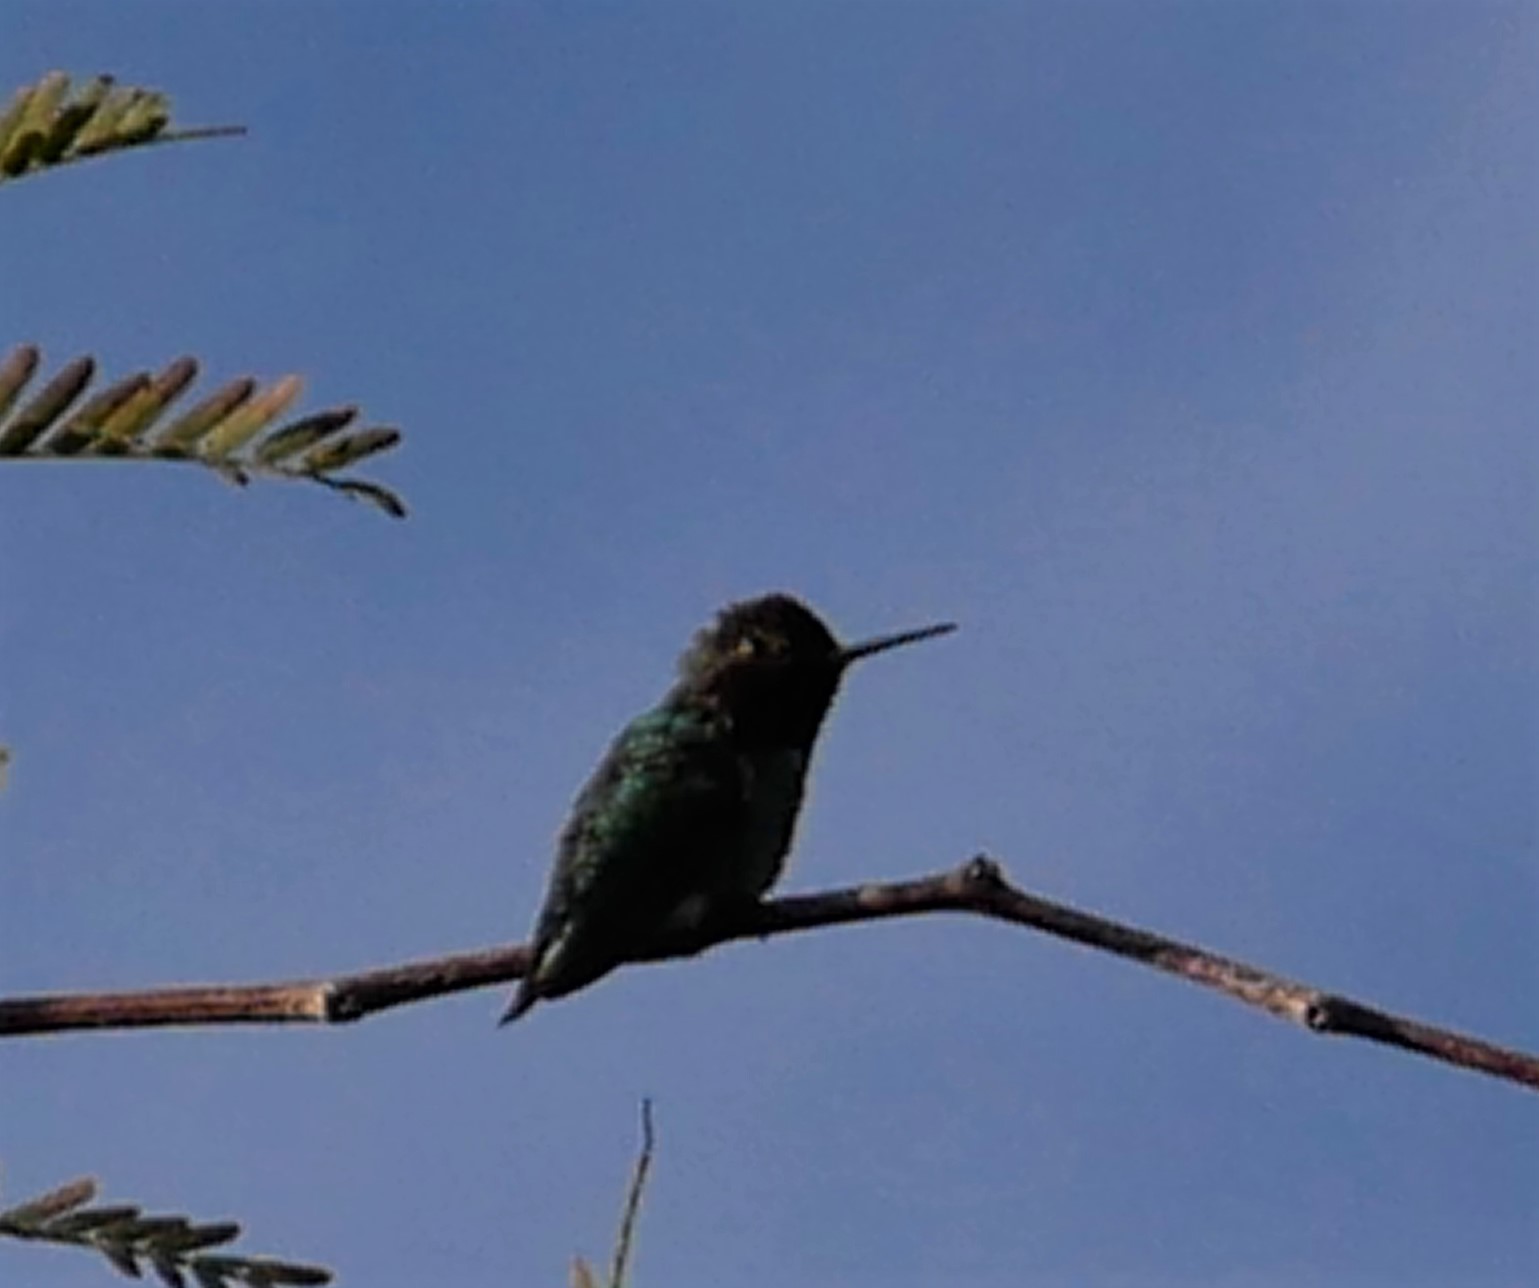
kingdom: Animalia
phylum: Chordata
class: Aves
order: Apodiformes
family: Trochilidae
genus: Calypte
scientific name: Calypte anna
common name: Anna's hummingbird
